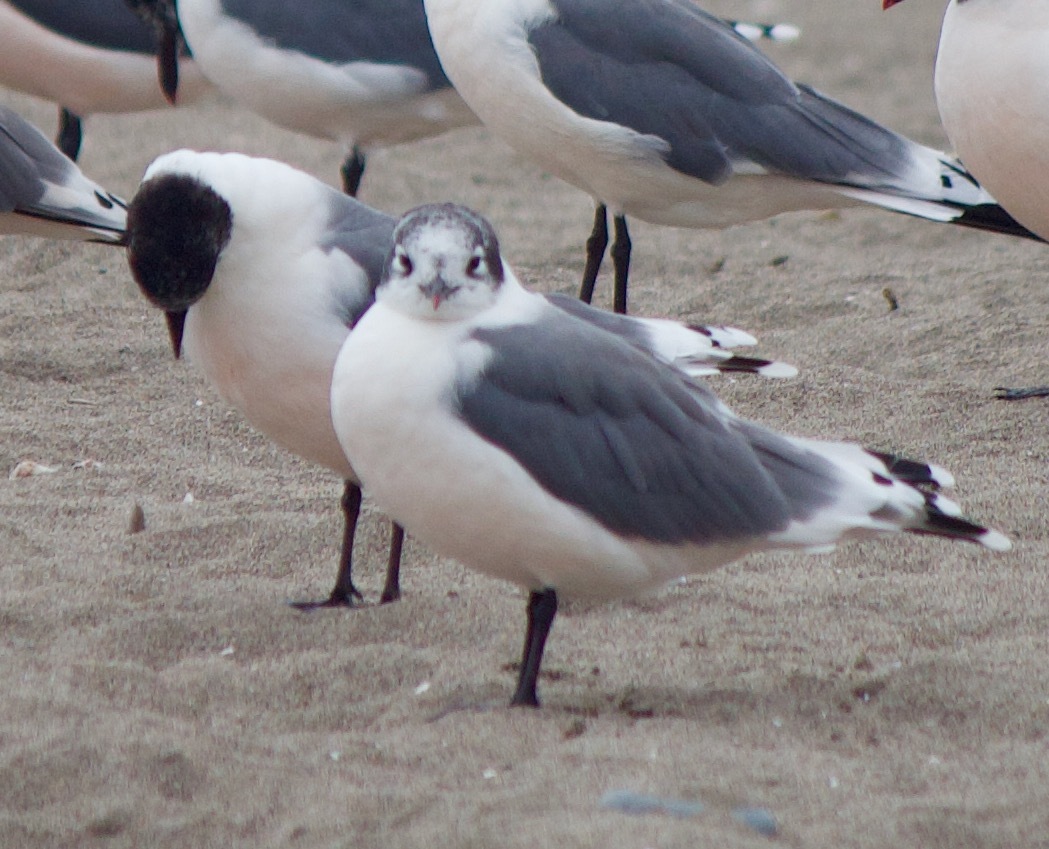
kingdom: Animalia
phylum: Chordata
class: Aves
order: Charadriiformes
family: Laridae
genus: Leucophaeus
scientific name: Leucophaeus pipixcan
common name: Franklin's gull
